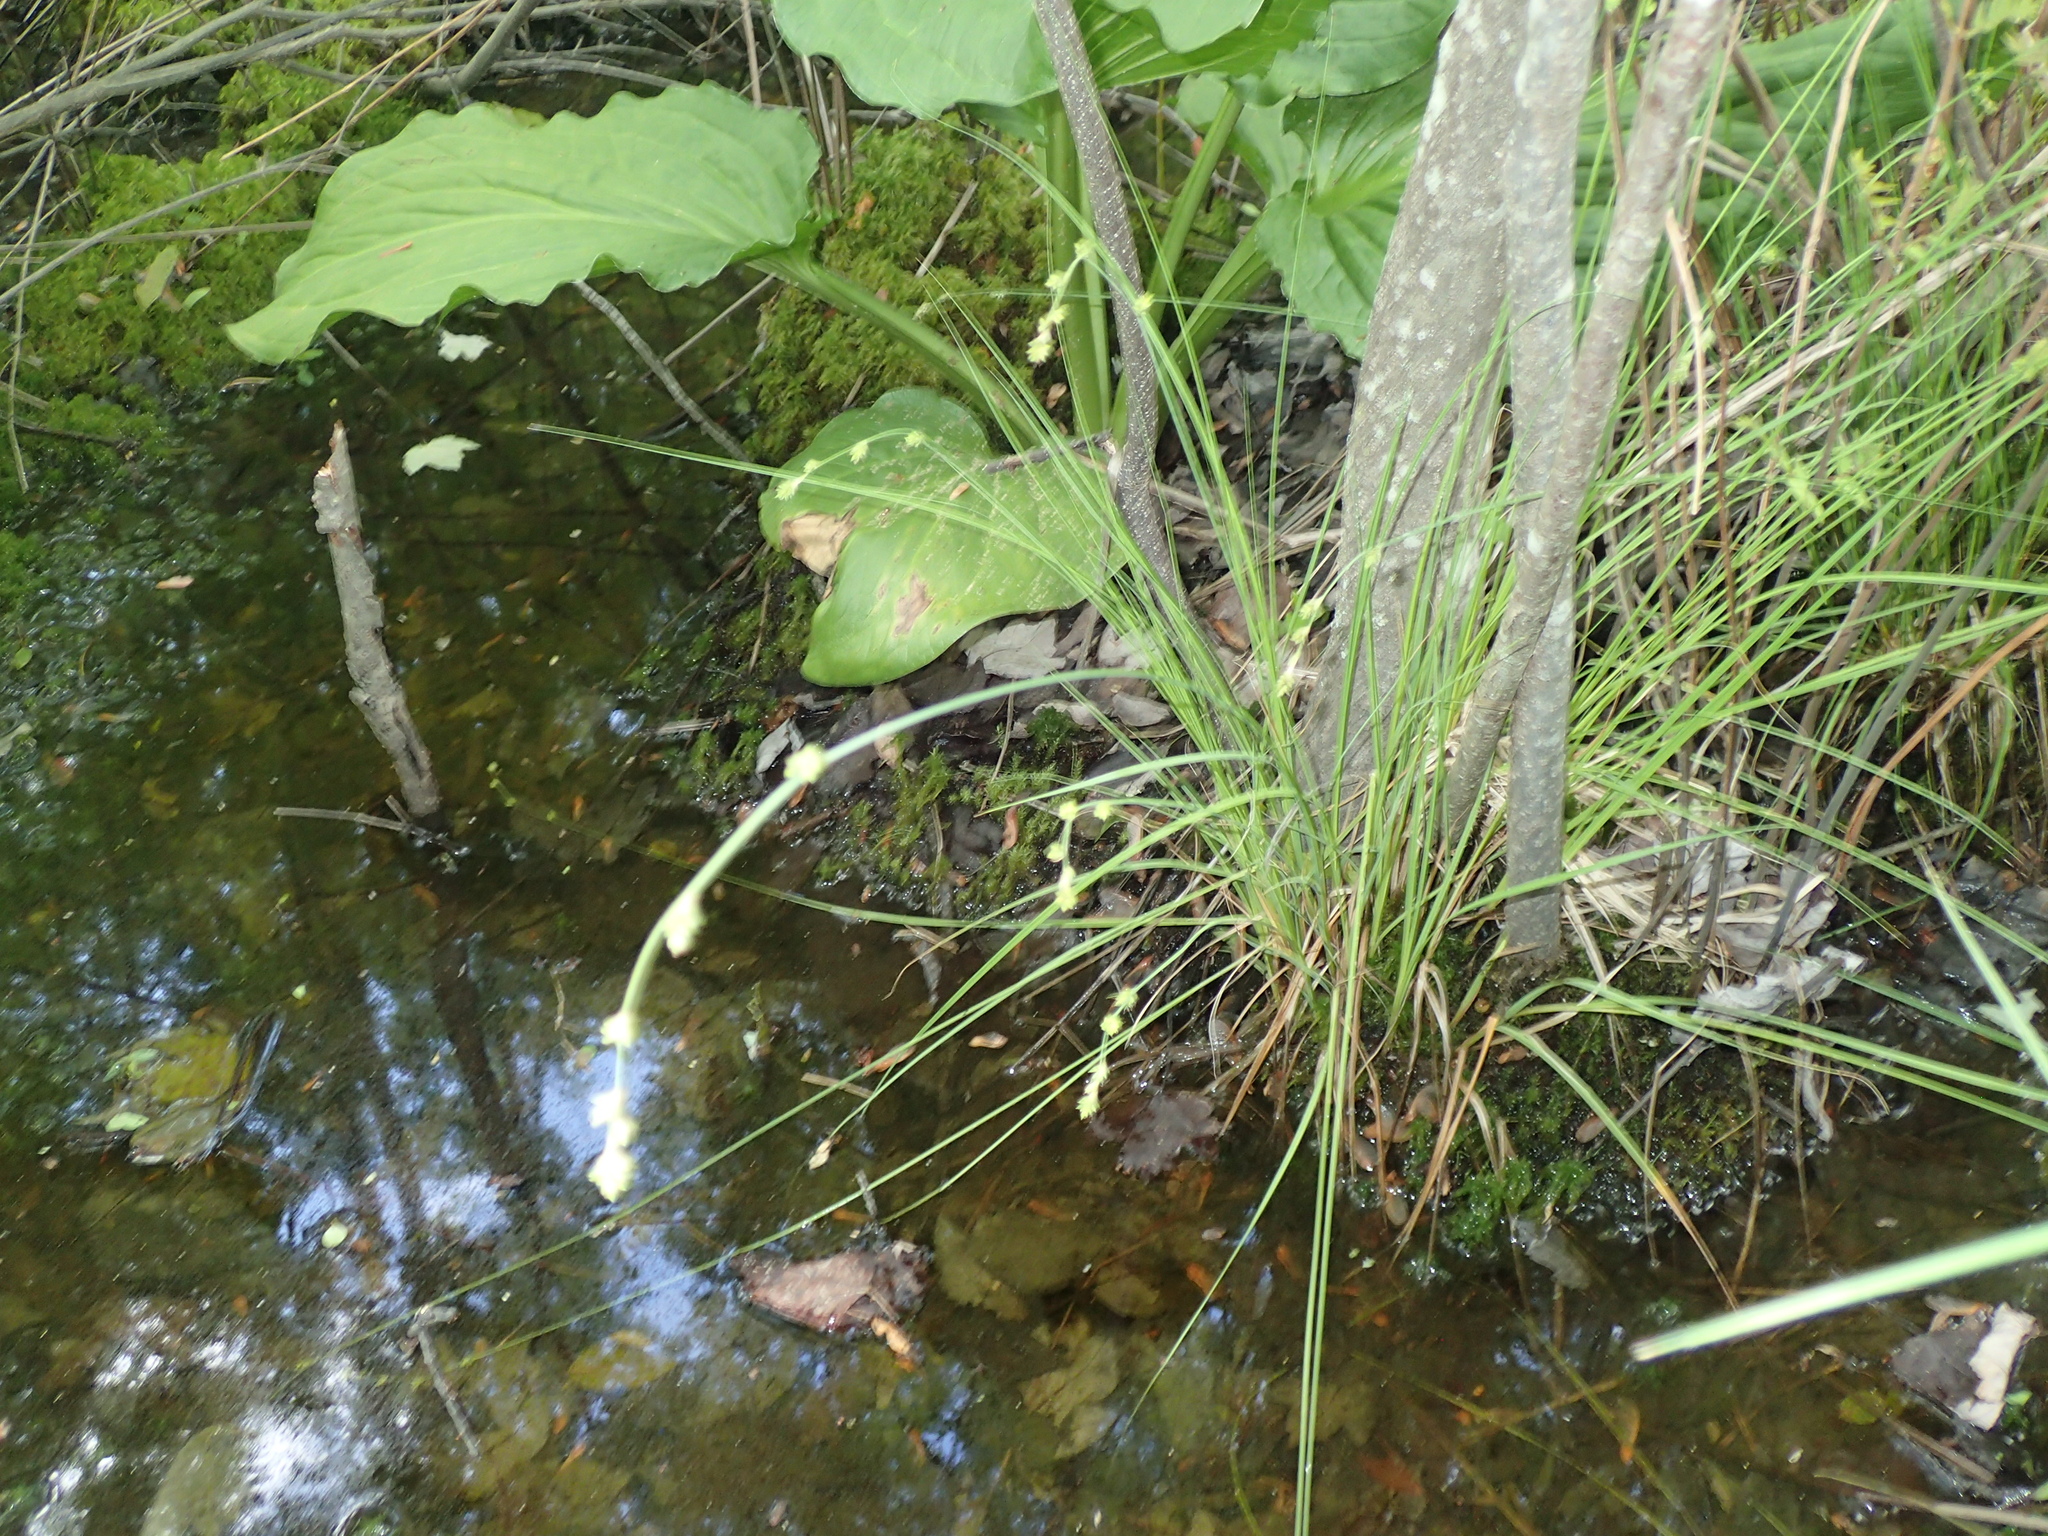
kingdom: Plantae
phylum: Tracheophyta
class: Liliopsida
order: Poales
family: Cyperaceae
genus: Carex
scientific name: Carex canescens
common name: White sedge
